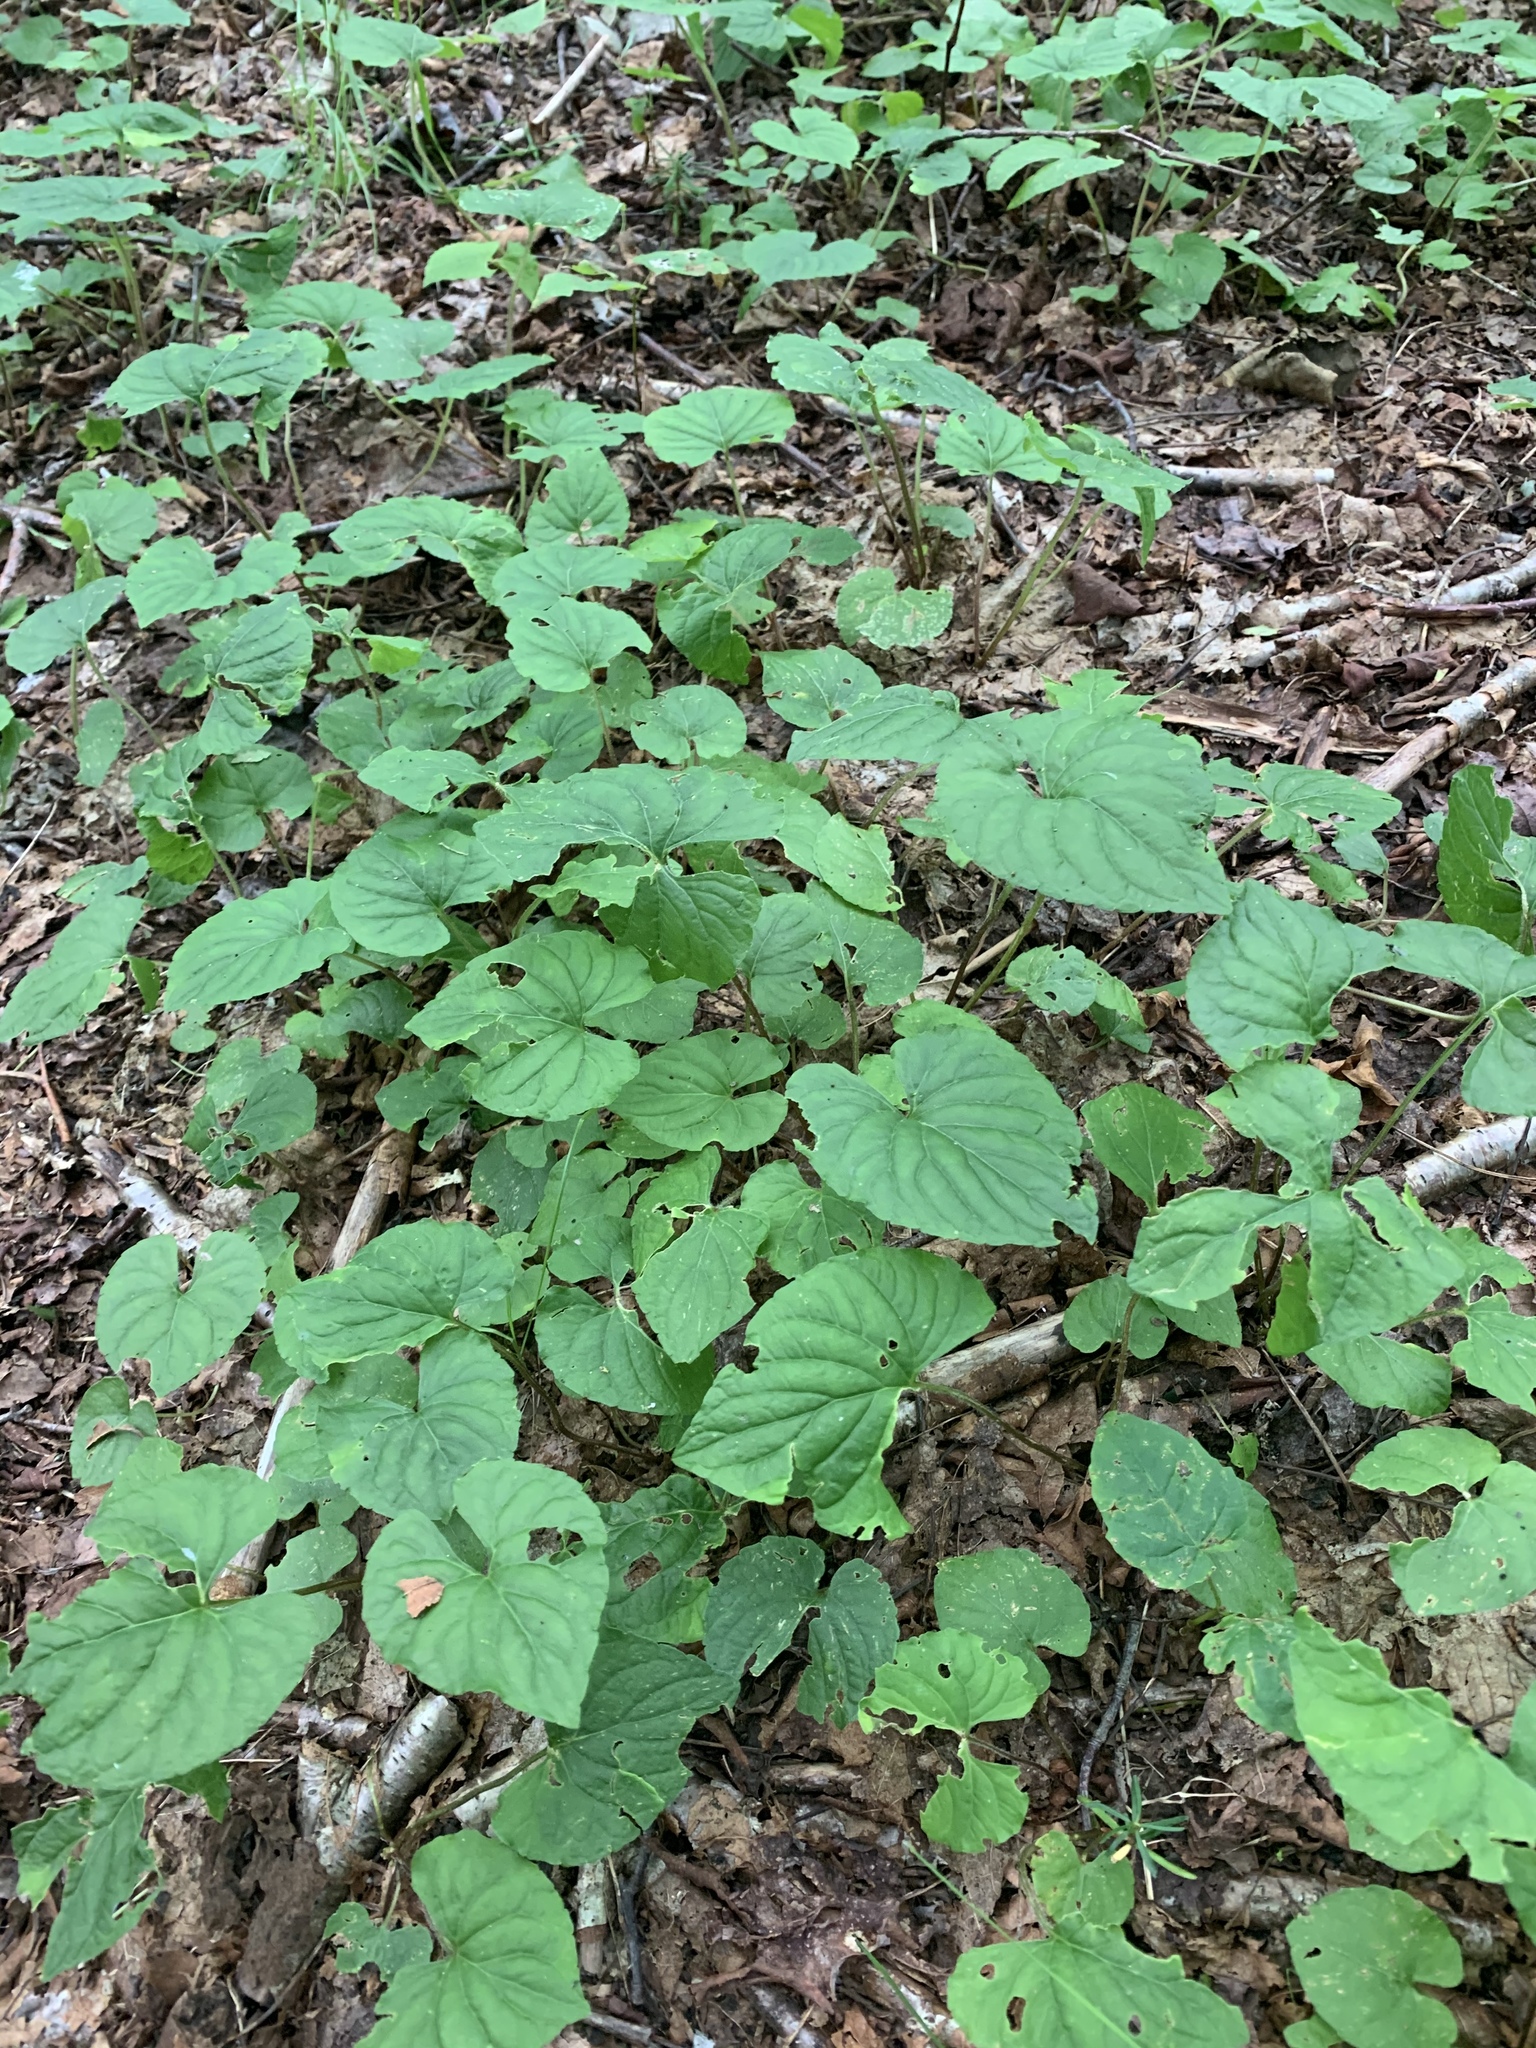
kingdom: Plantae
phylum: Tracheophyta
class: Magnoliopsida
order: Malpighiales
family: Violaceae
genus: Viola
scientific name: Viola blanda
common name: Sweet white violet
